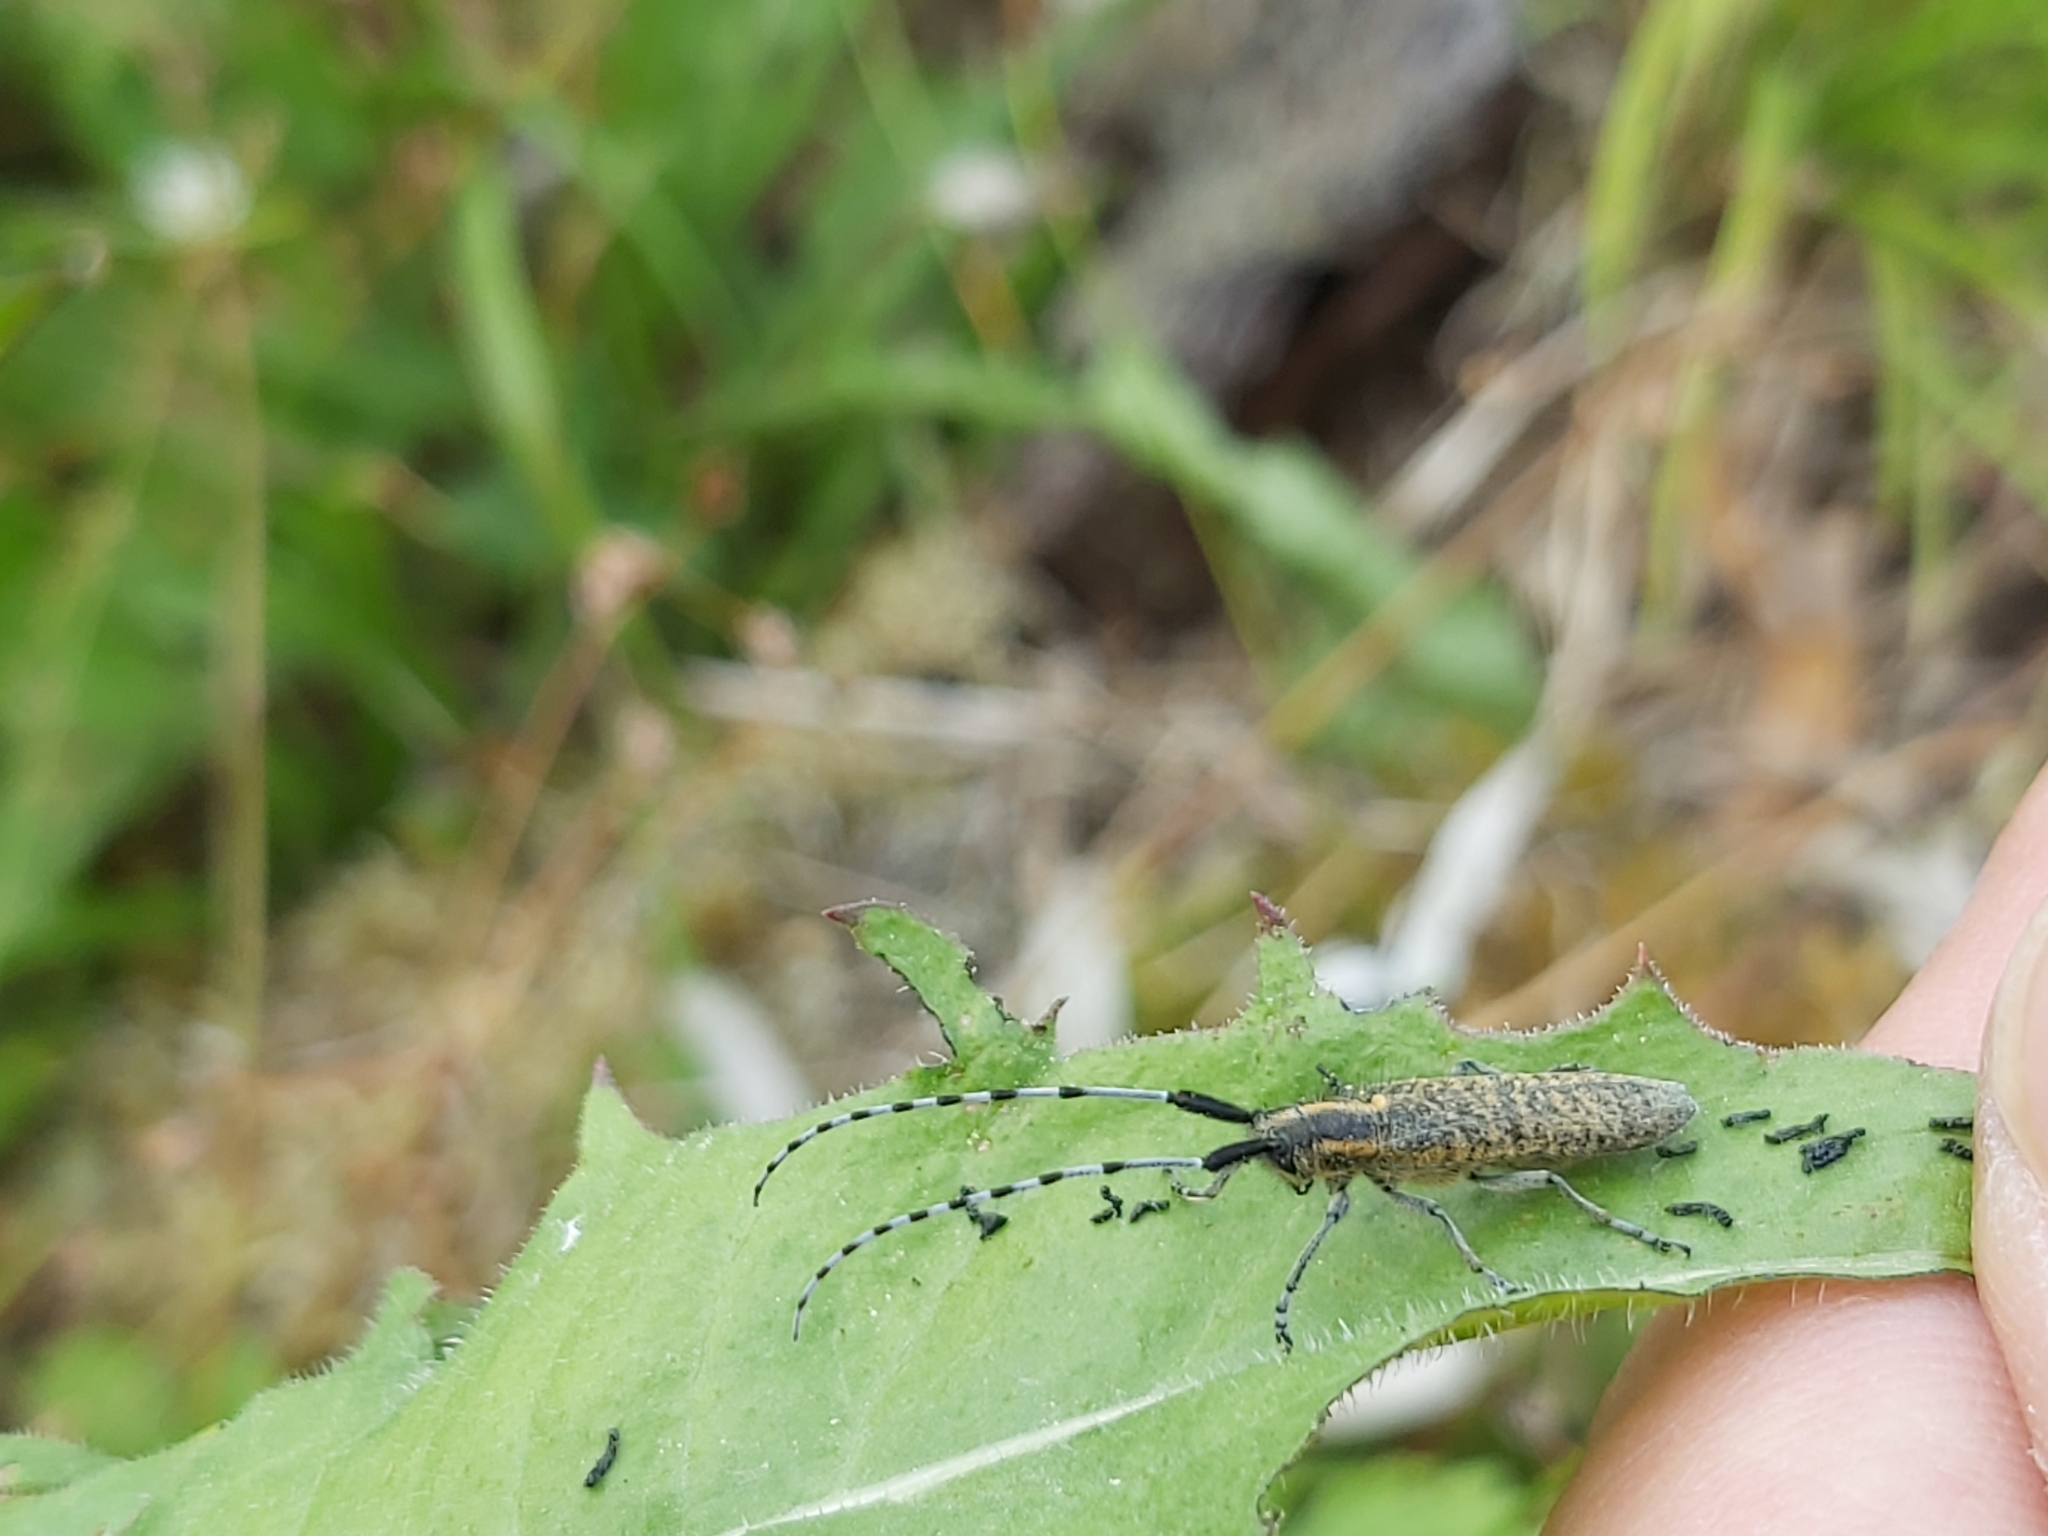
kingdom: Animalia
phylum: Arthropoda
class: Insecta
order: Coleoptera
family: Cerambycidae
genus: Agapanthia
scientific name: Agapanthia villosoviridescens
